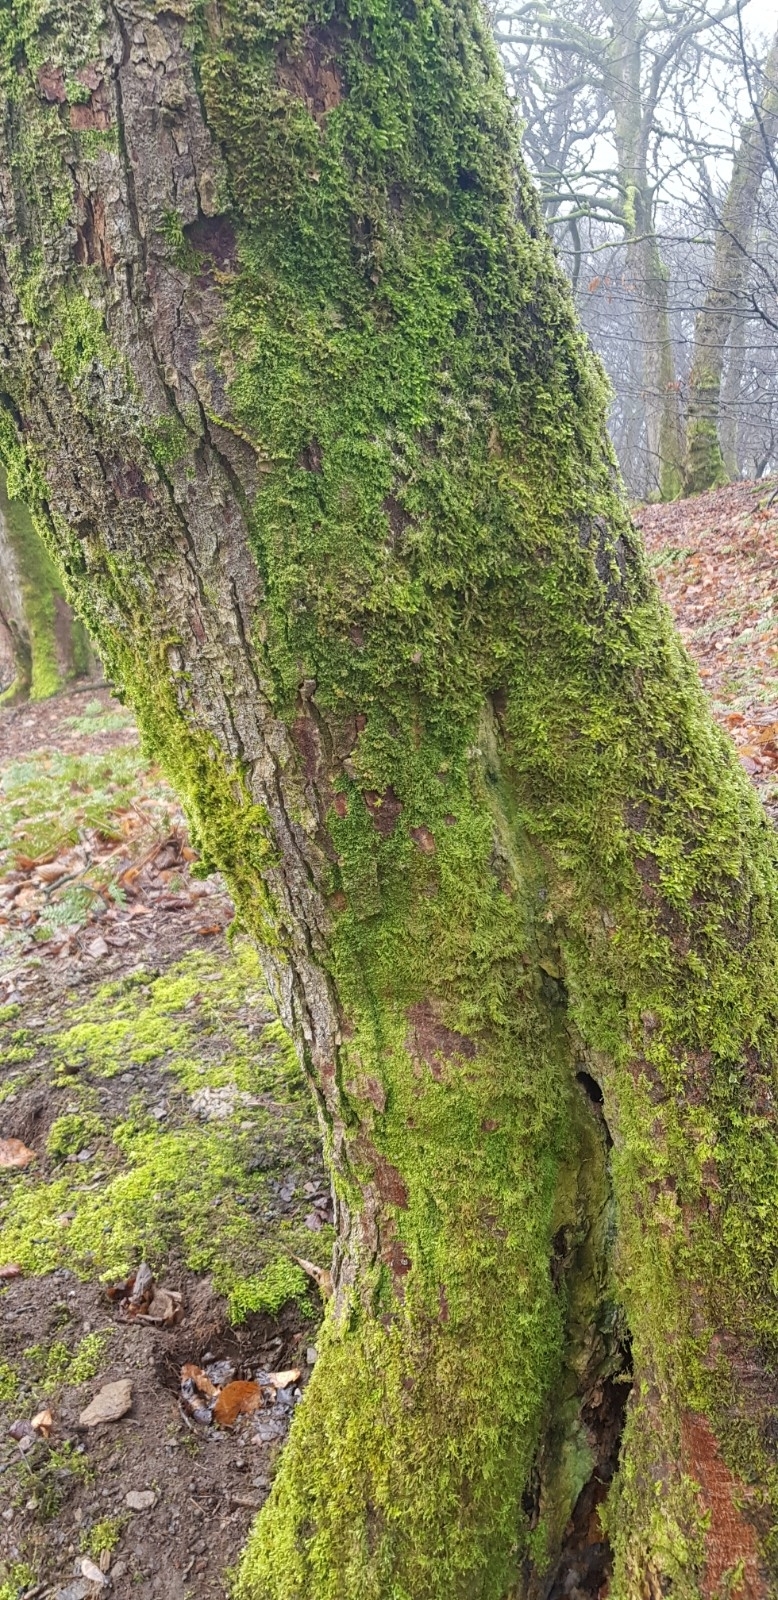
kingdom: Plantae
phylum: Marchantiophyta
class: Jungermanniopsida
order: Metzgeriales
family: Metzgeriaceae
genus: Metzgeria
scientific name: Metzgeria furcata
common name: Forked veilwort
